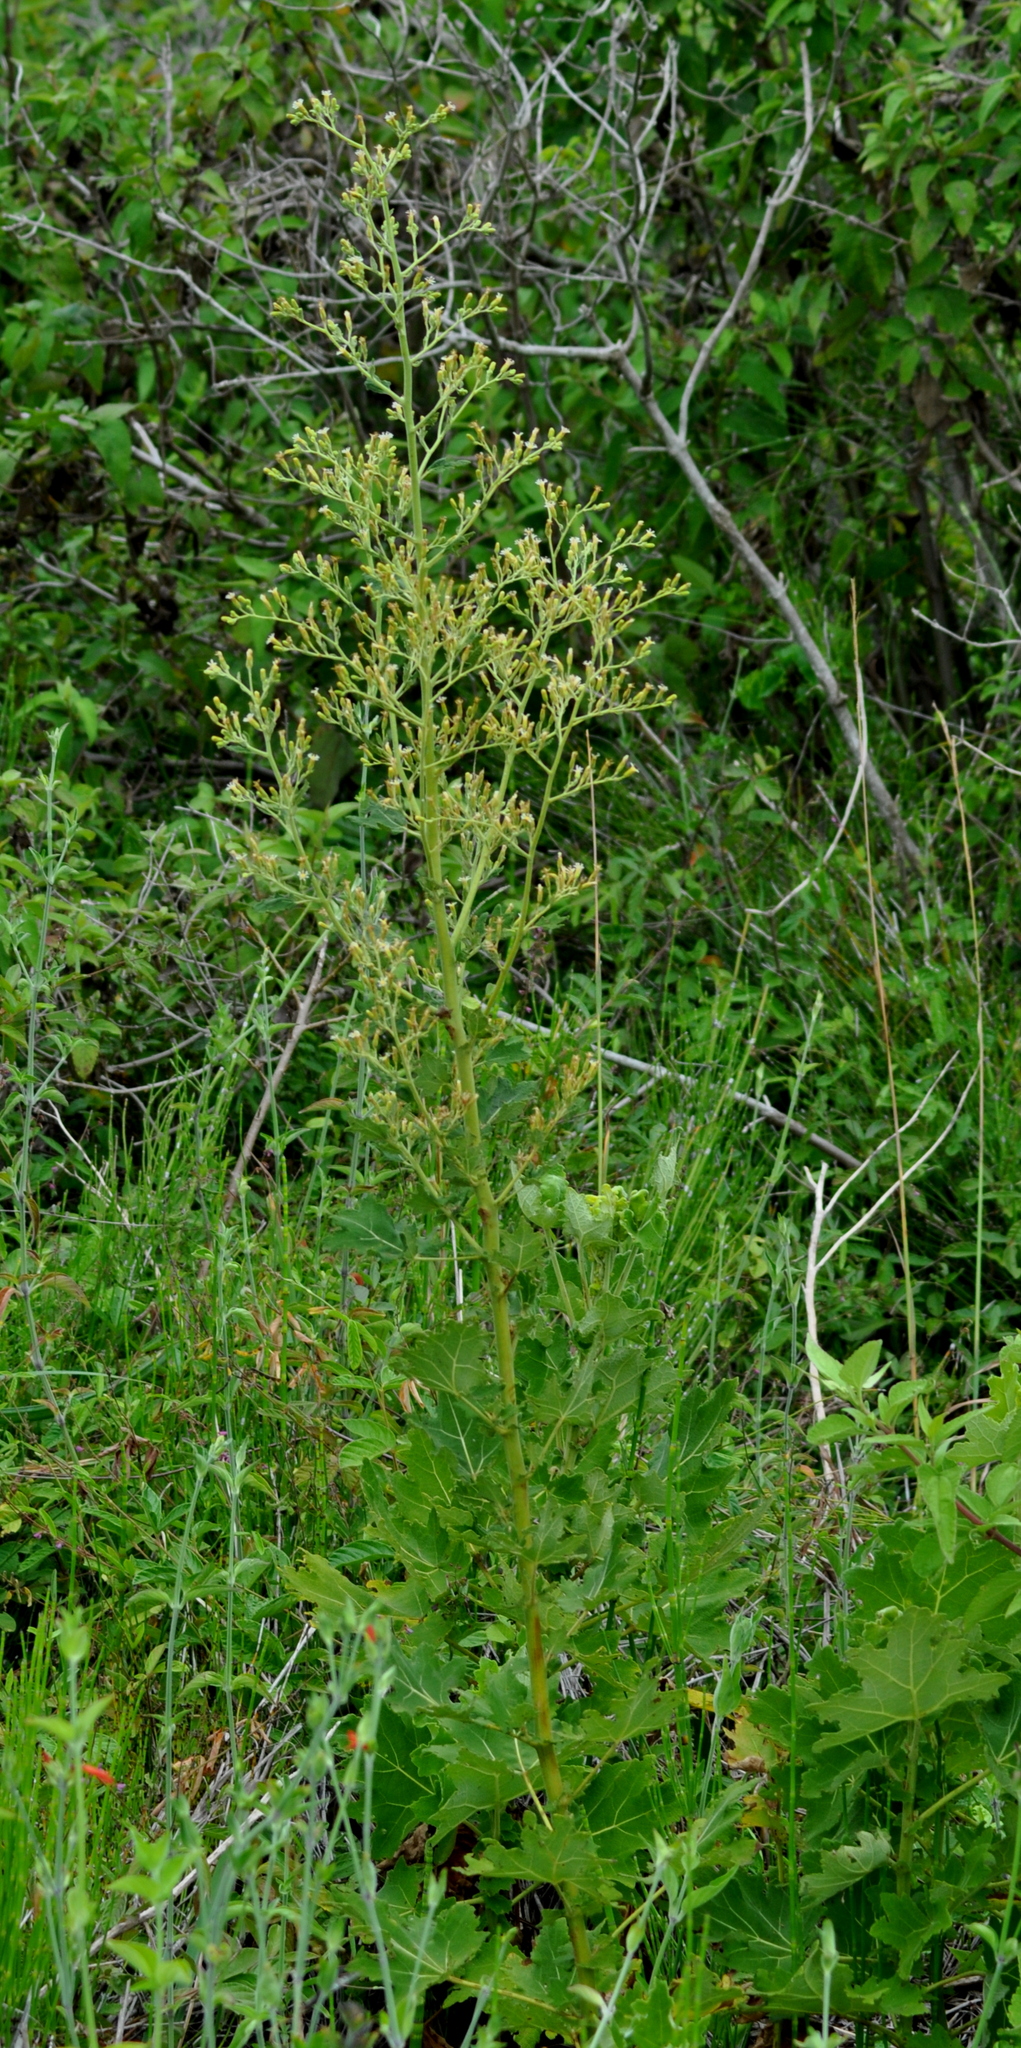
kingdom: Plantae
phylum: Tracheophyta
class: Magnoliopsida
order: Asterales
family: Asteraceae
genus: Jungia
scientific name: Jungia floribunda
